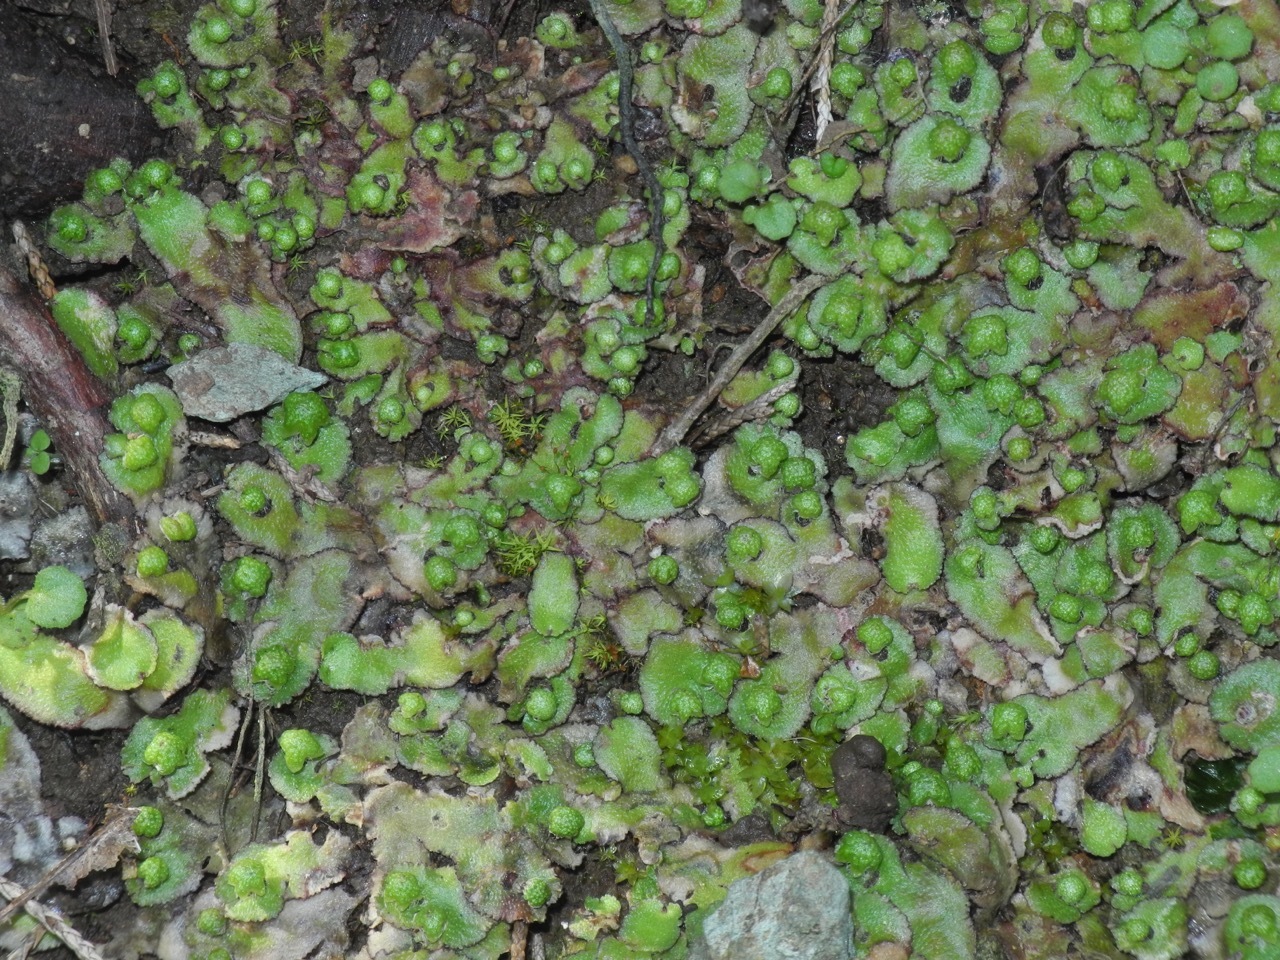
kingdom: Plantae
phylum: Marchantiophyta
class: Marchantiopsida
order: Marchantiales
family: Aytoniaceae
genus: Asterella
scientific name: Asterella tenella
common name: Delicate starwort
